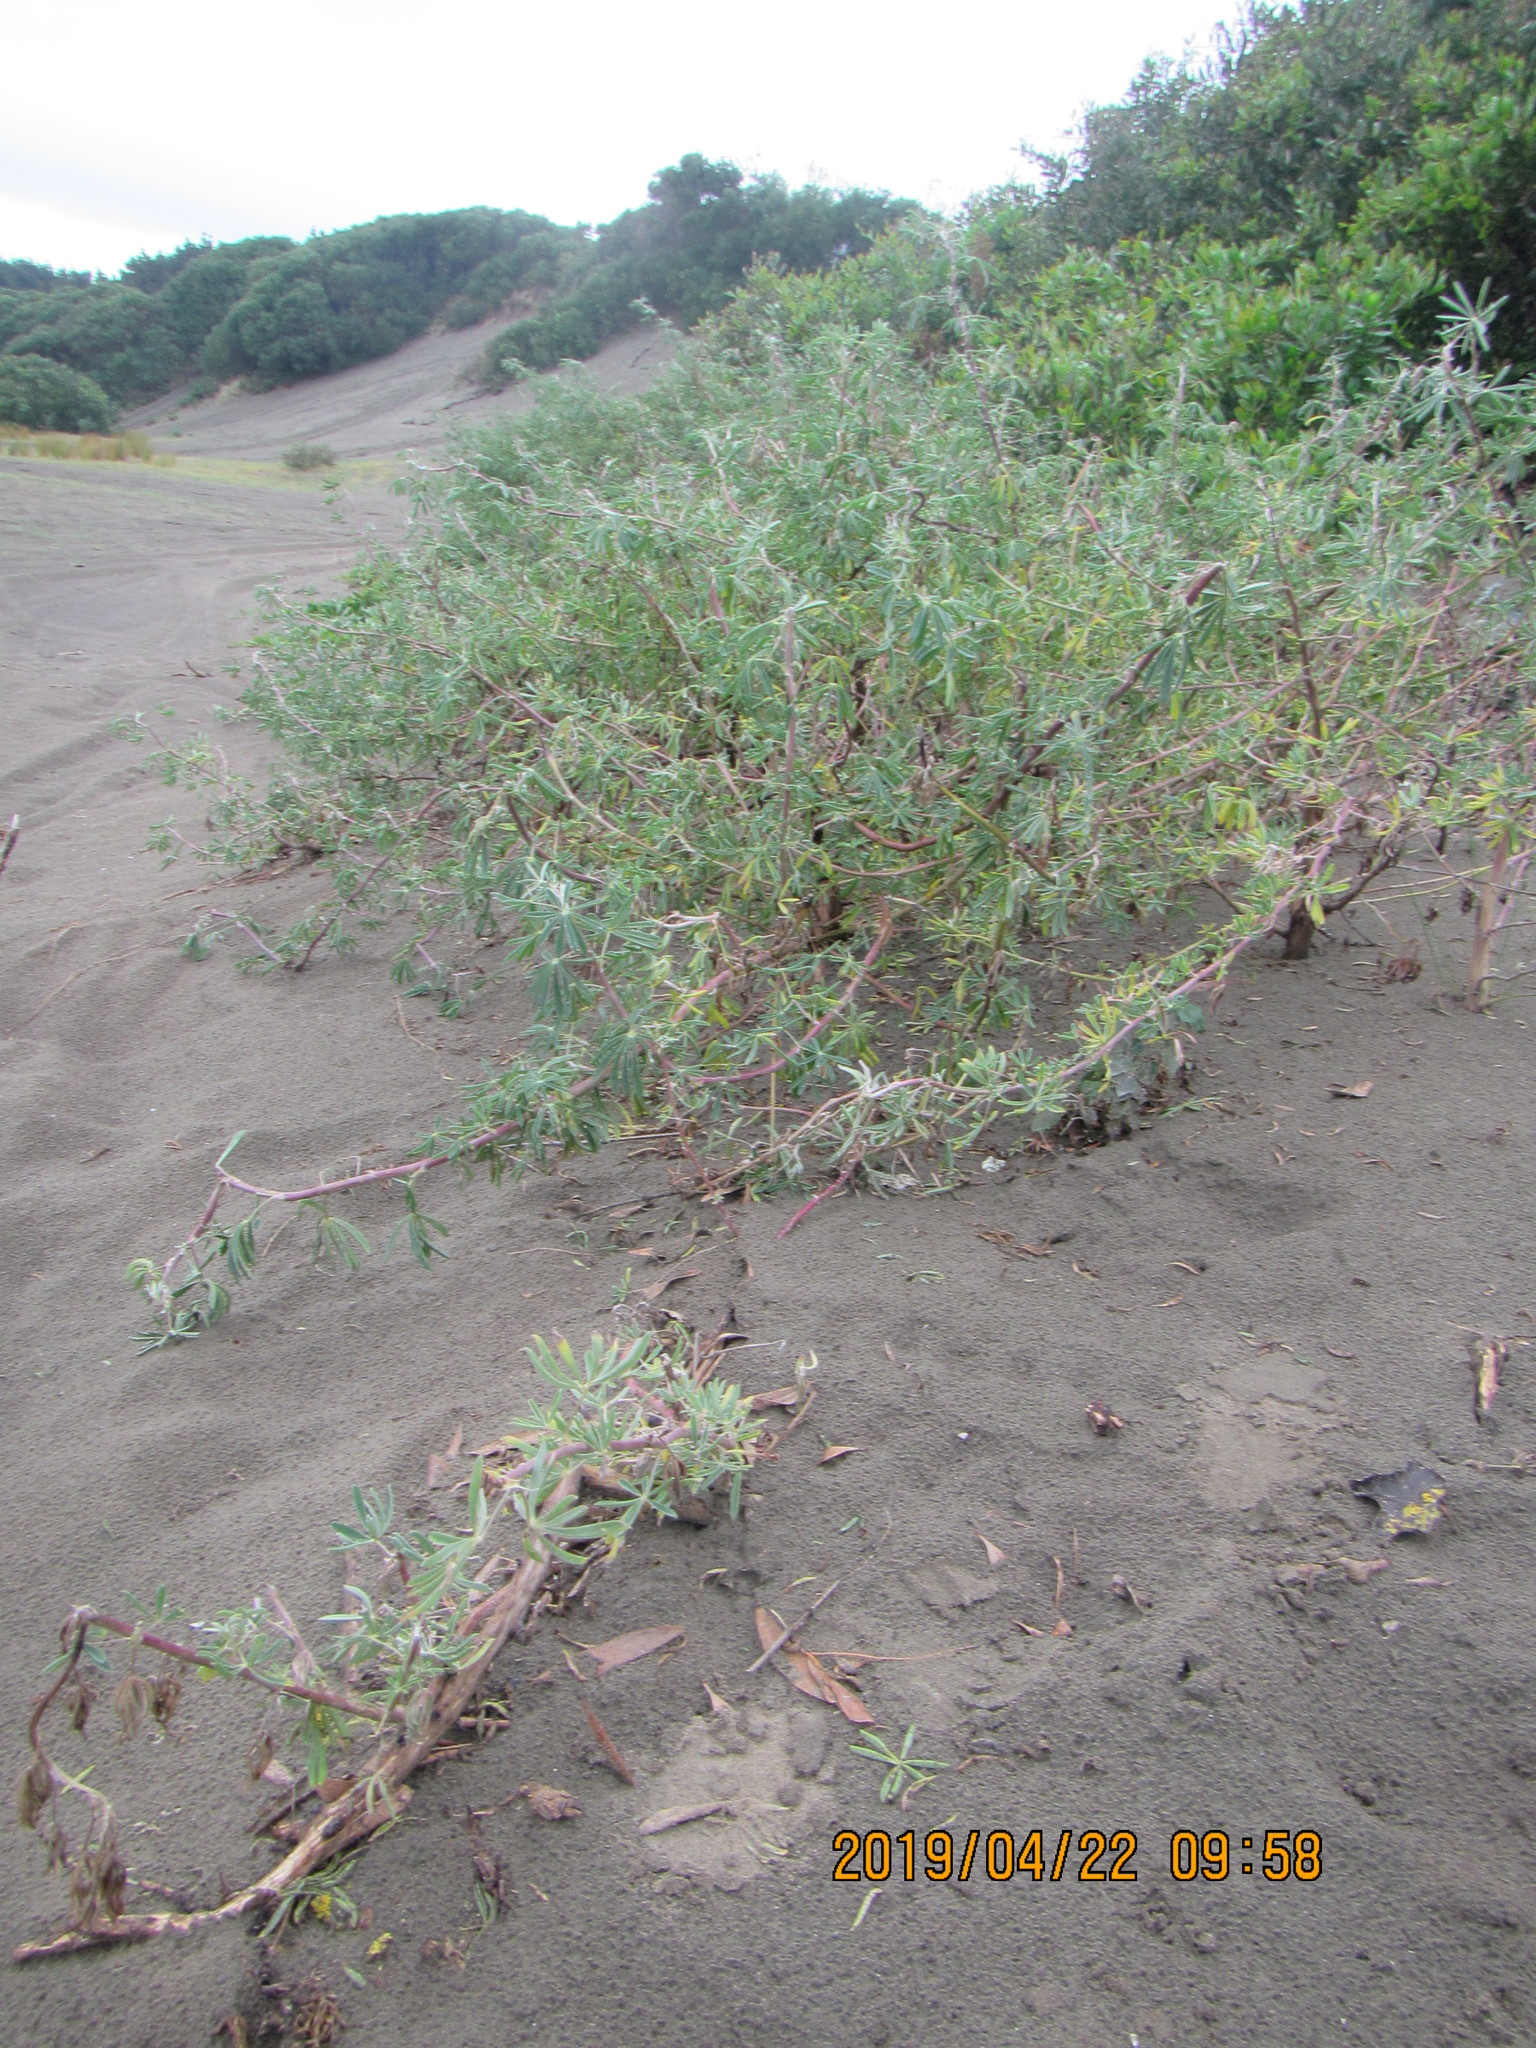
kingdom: Plantae
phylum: Tracheophyta
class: Magnoliopsida
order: Fabales
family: Fabaceae
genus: Lupinus
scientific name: Lupinus arboreus
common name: Yellow bush lupine
